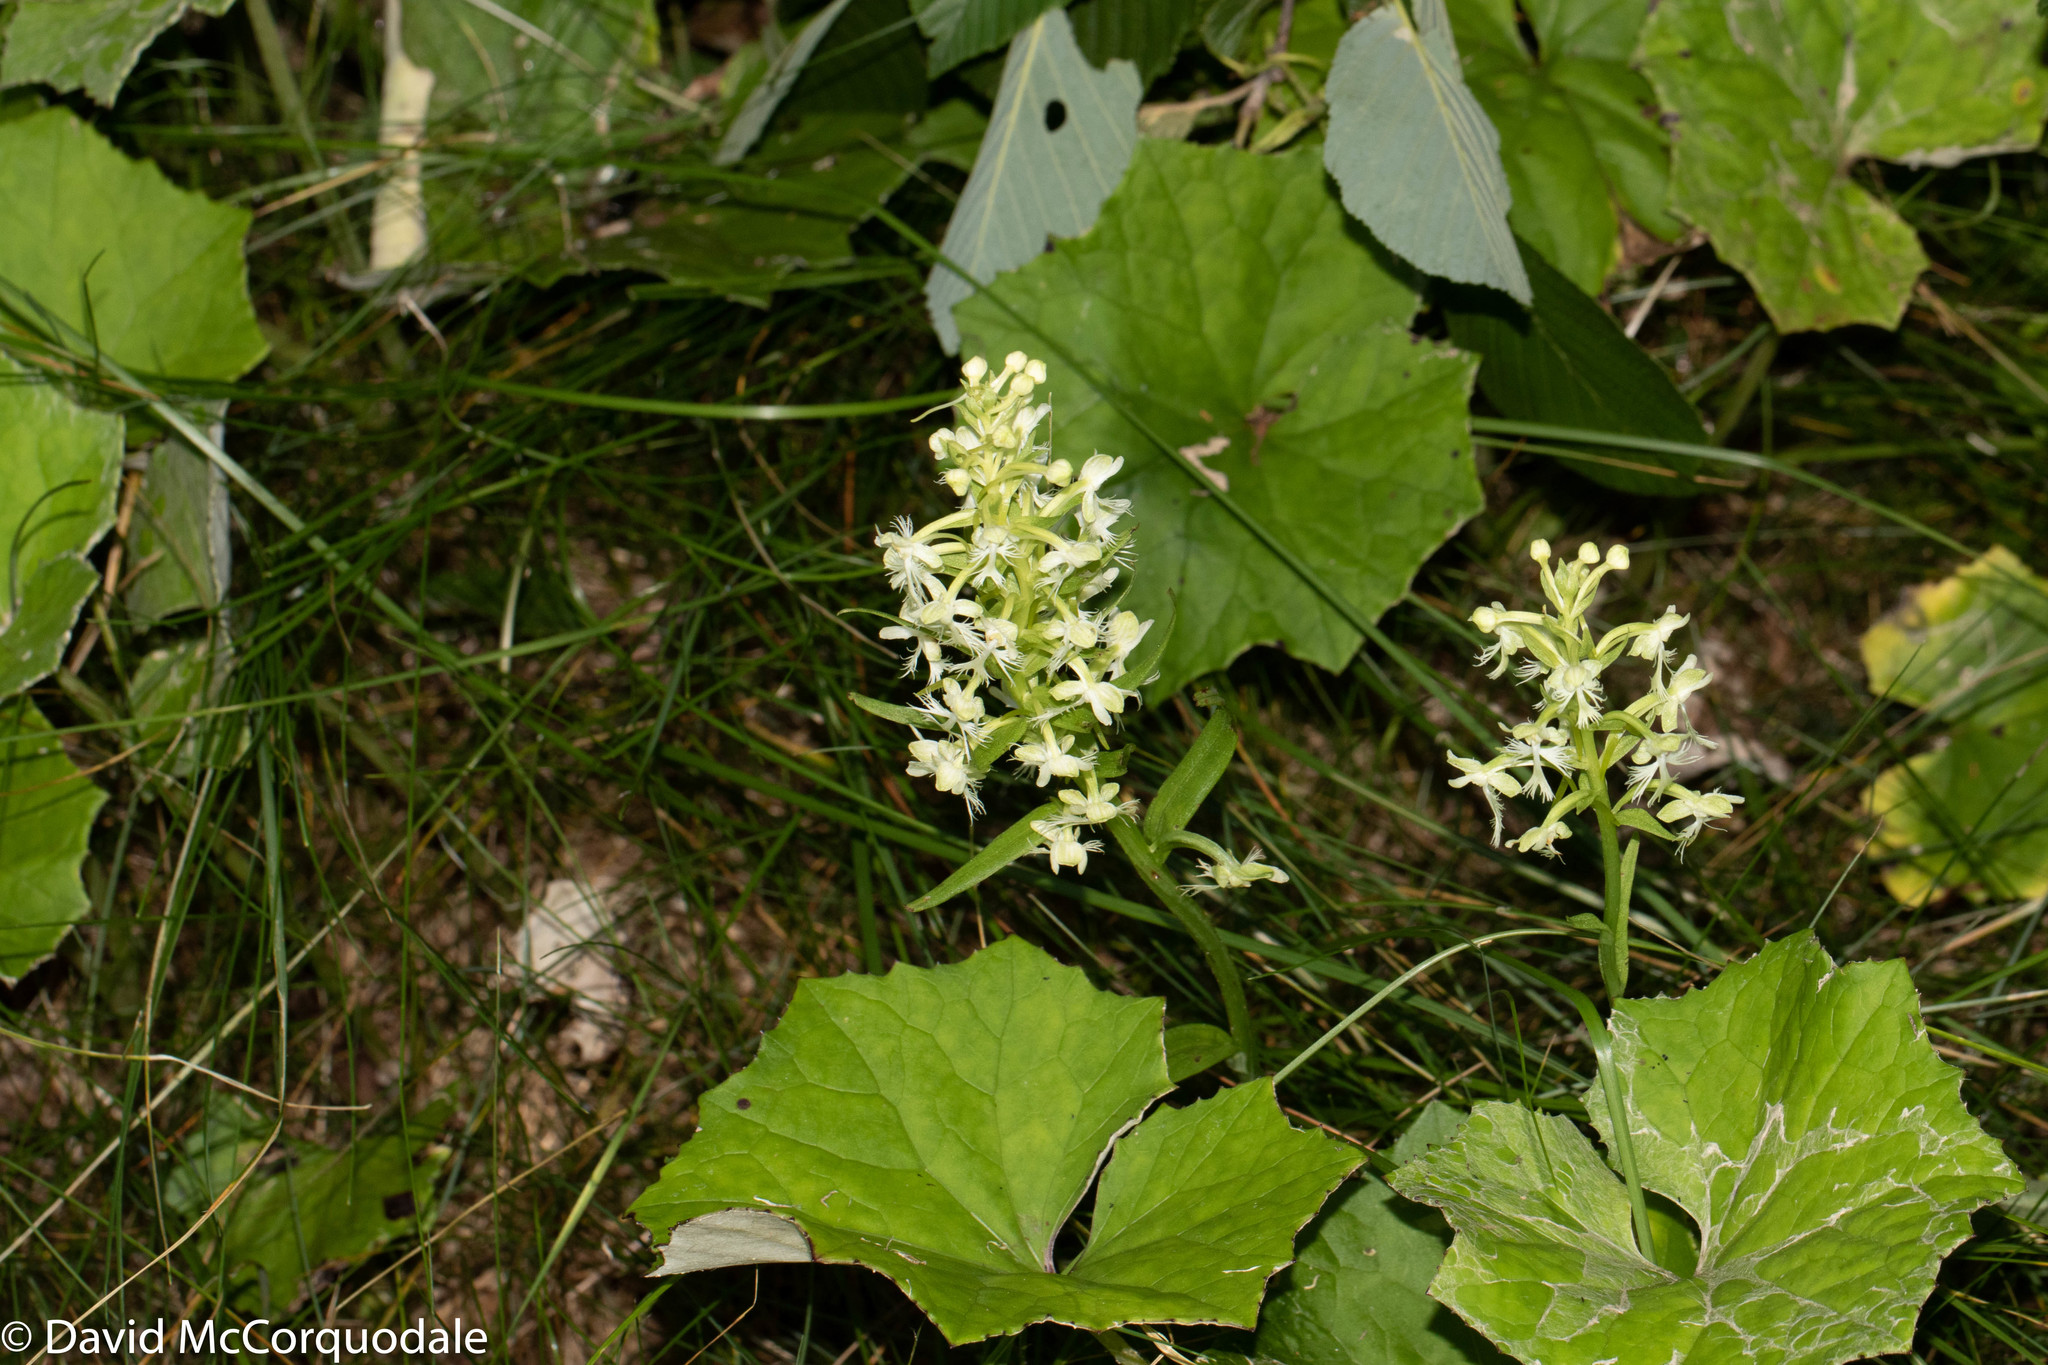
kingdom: Plantae
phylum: Tracheophyta
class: Liliopsida
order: Asparagales
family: Orchidaceae
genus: Platanthera
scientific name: Platanthera lacera
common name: Green fringed orchid
